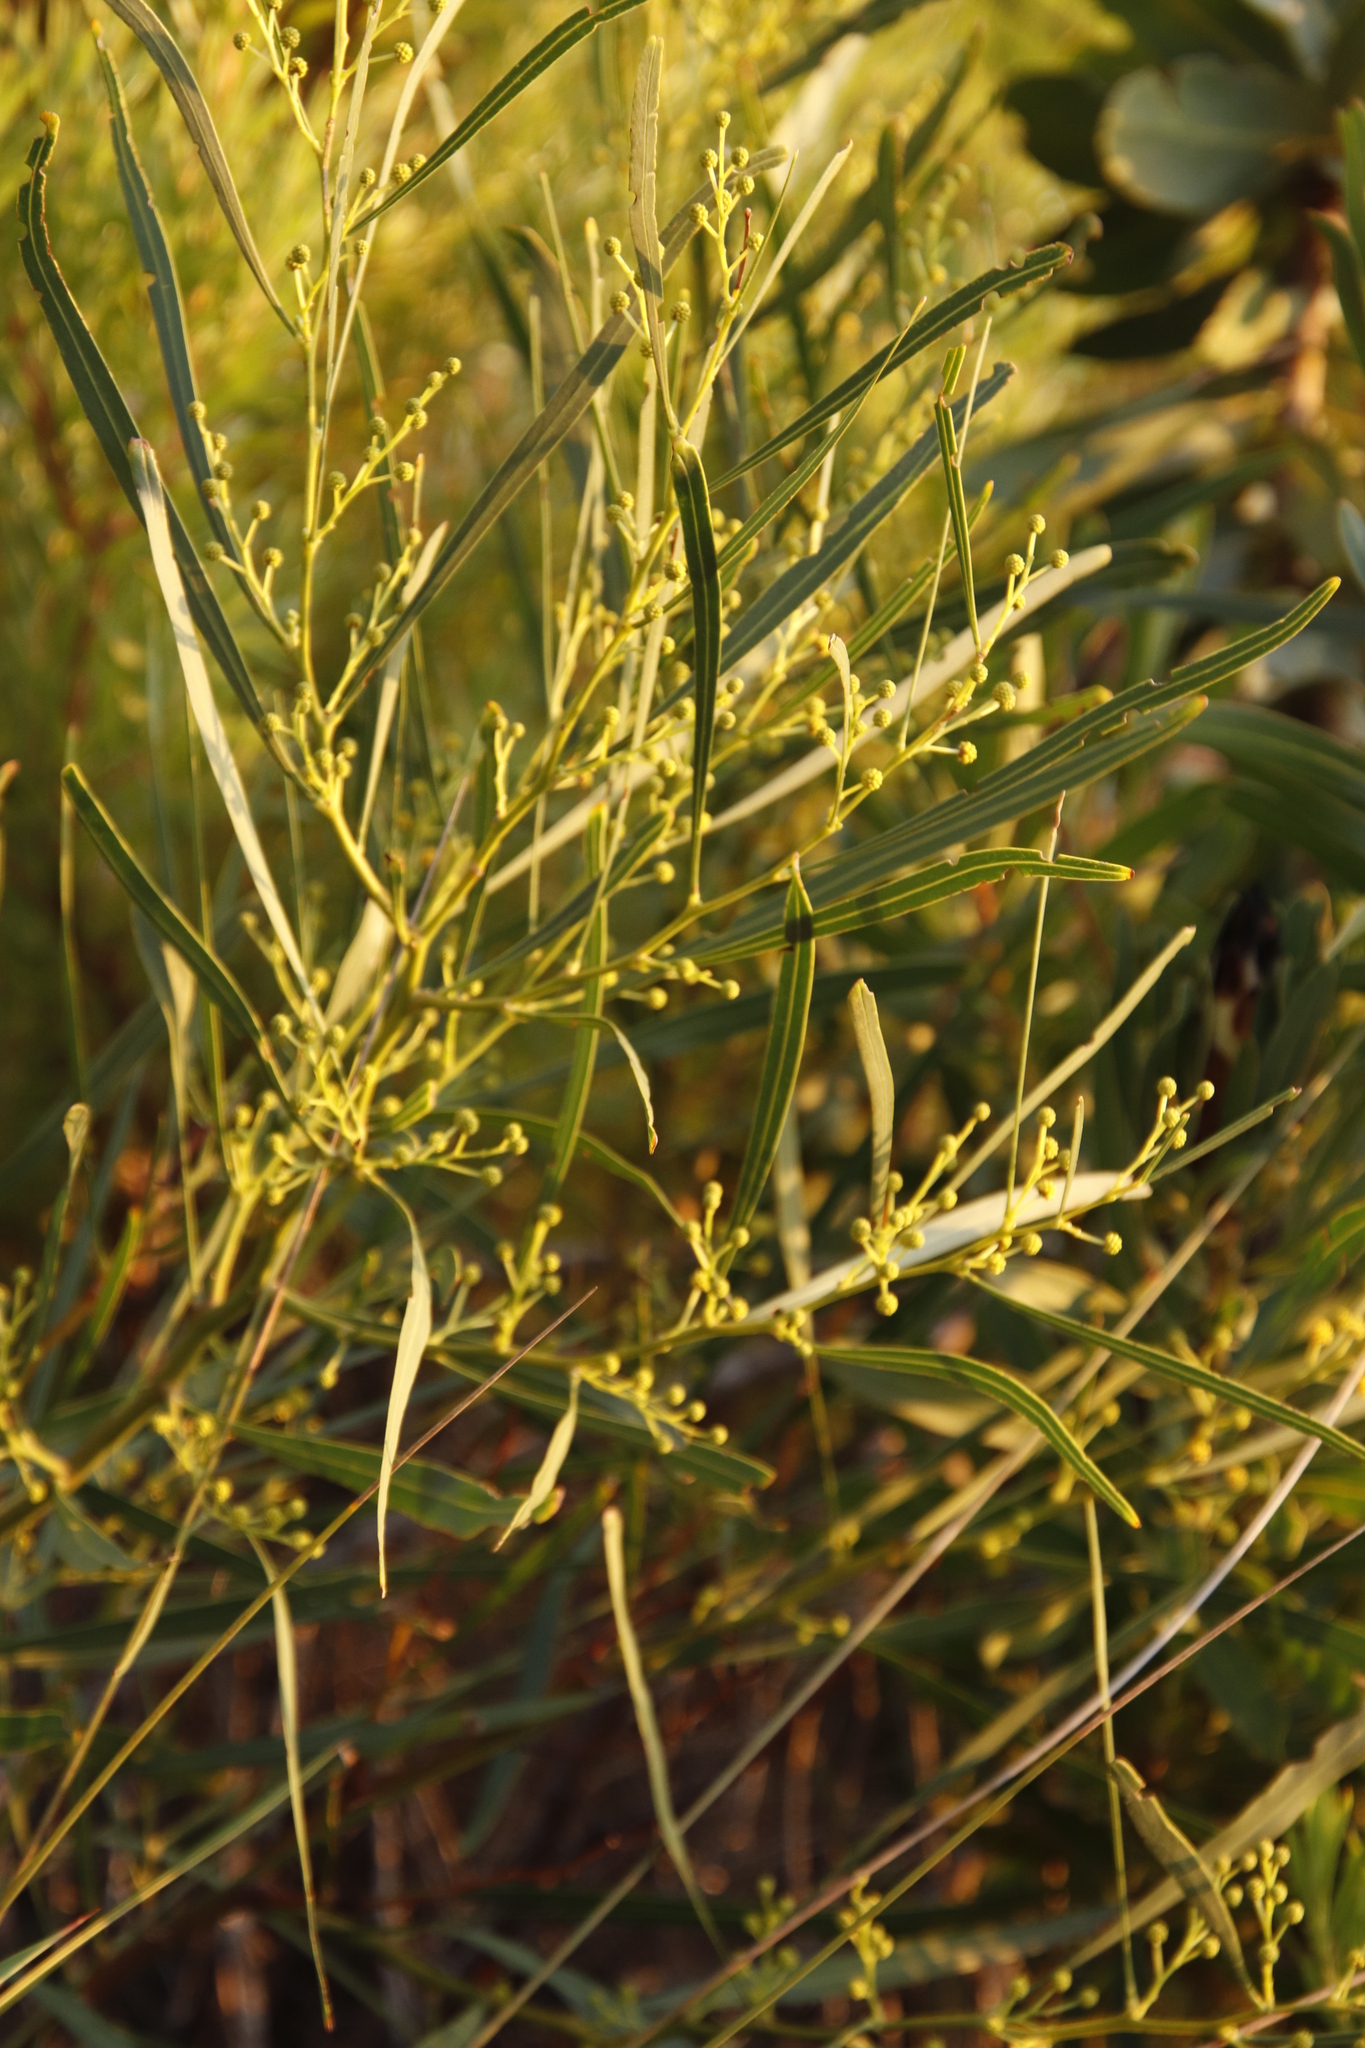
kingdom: Plantae
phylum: Tracheophyta
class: Magnoliopsida
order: Fabales
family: Fabaceae
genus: Acacia
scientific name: Acacia saligna
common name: Orange wattle
